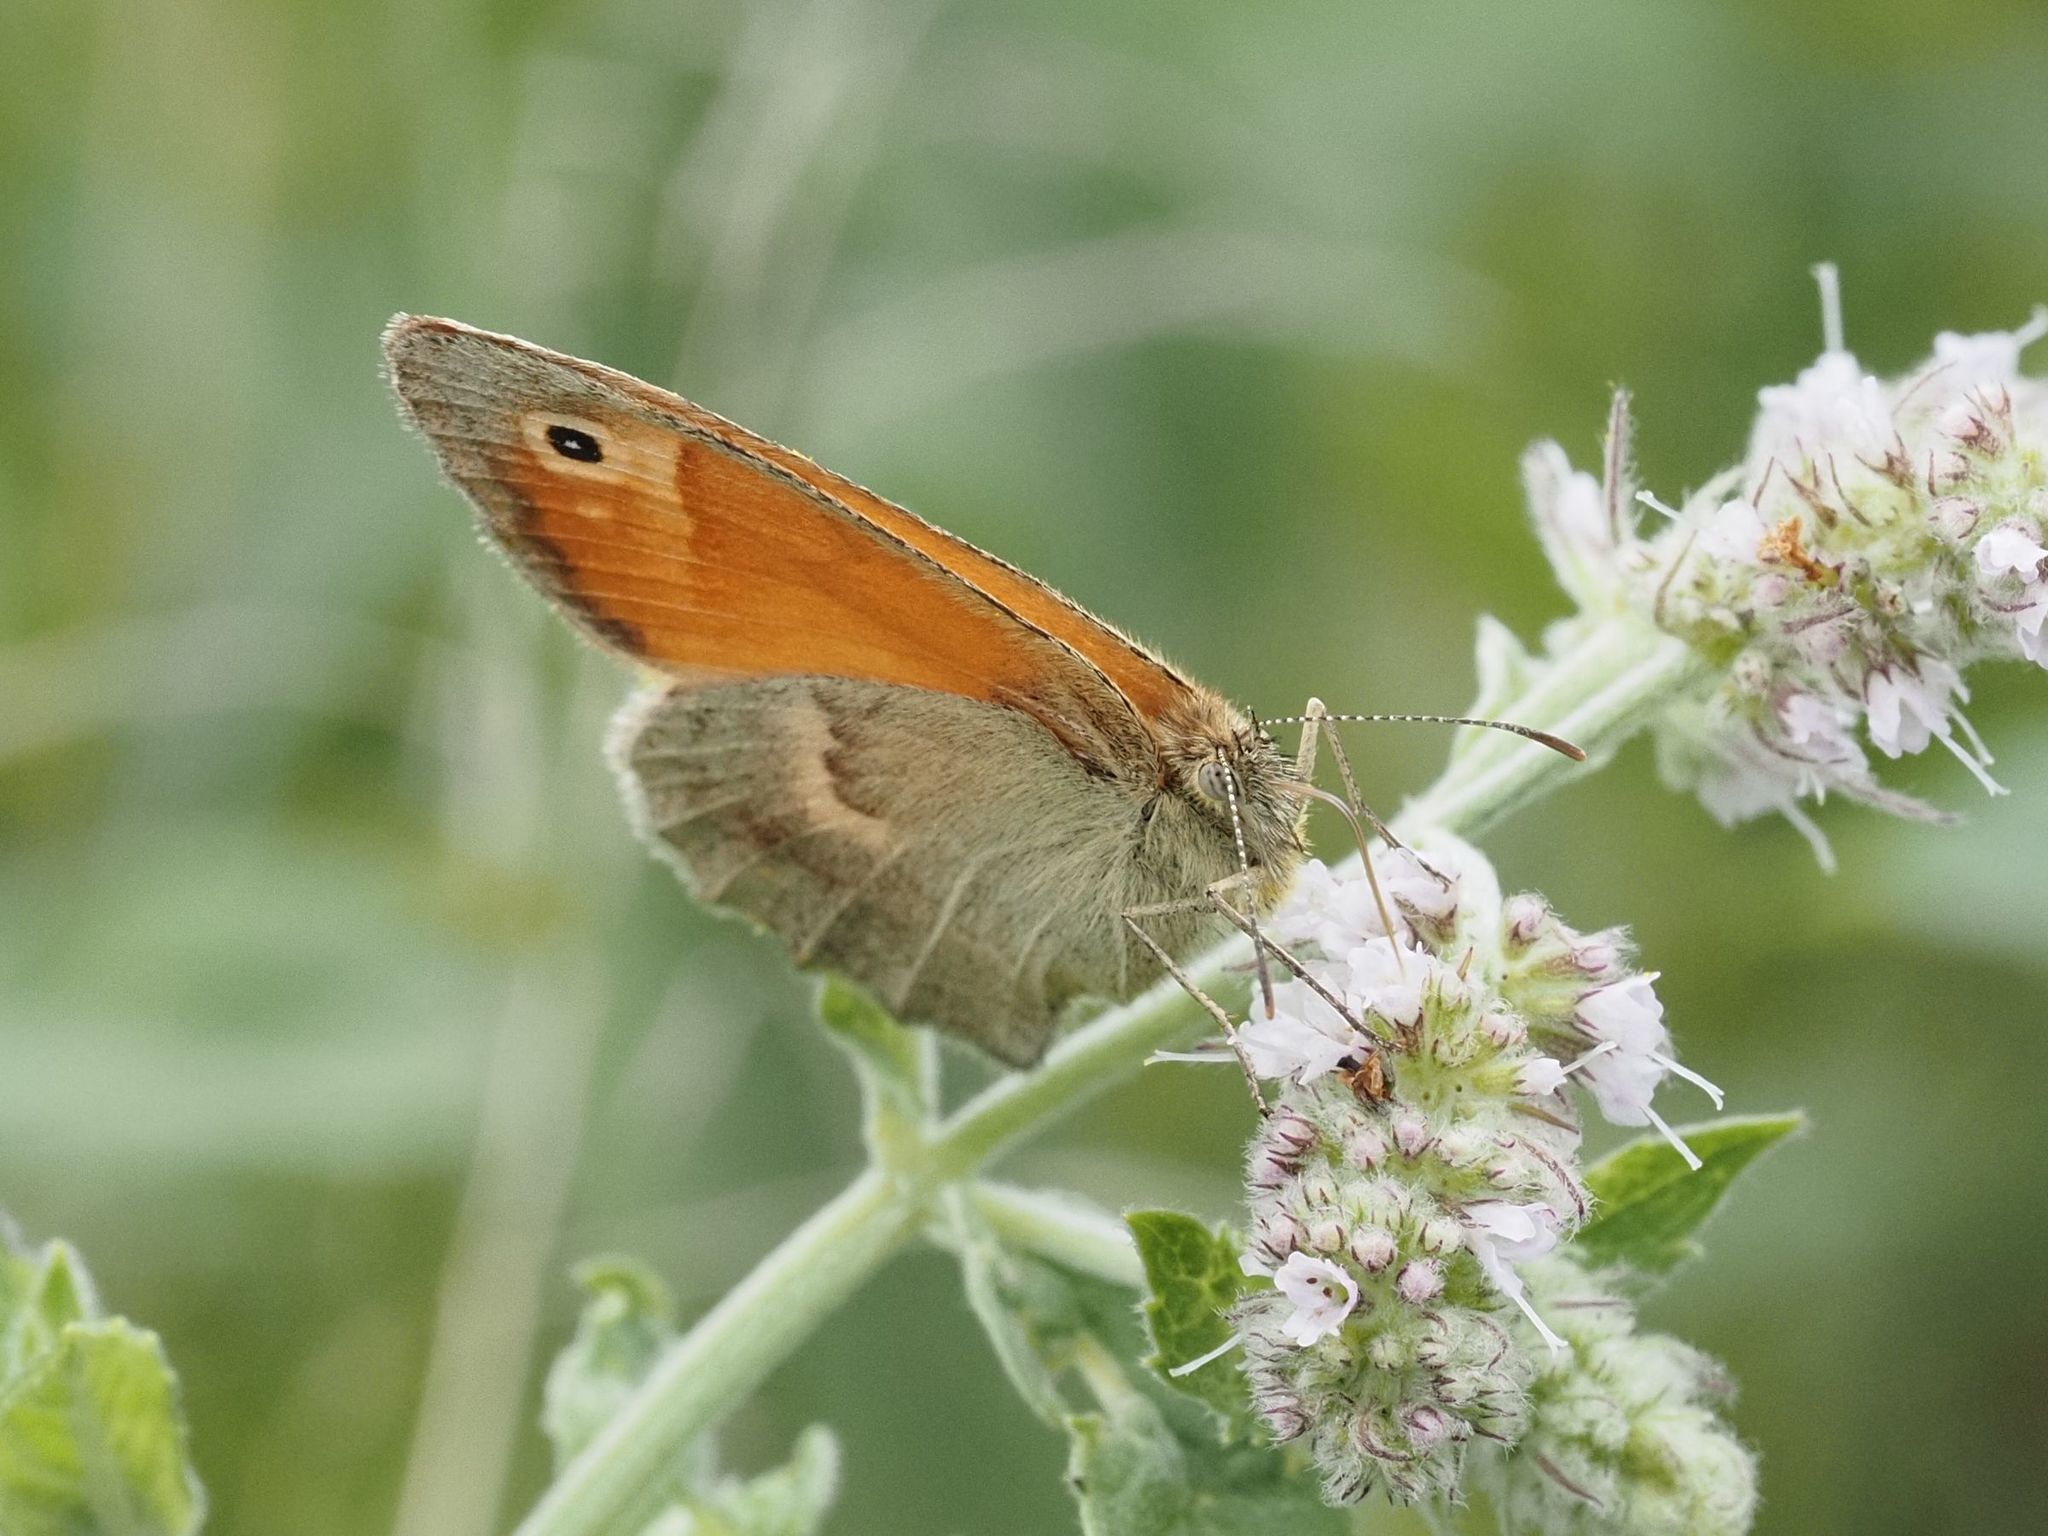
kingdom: Animalia
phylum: Arthropoda
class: Insecta
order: Lepidoptera
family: Nymphalidae
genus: Coenonympha
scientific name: Coenonympha pamphilus
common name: Small heath
